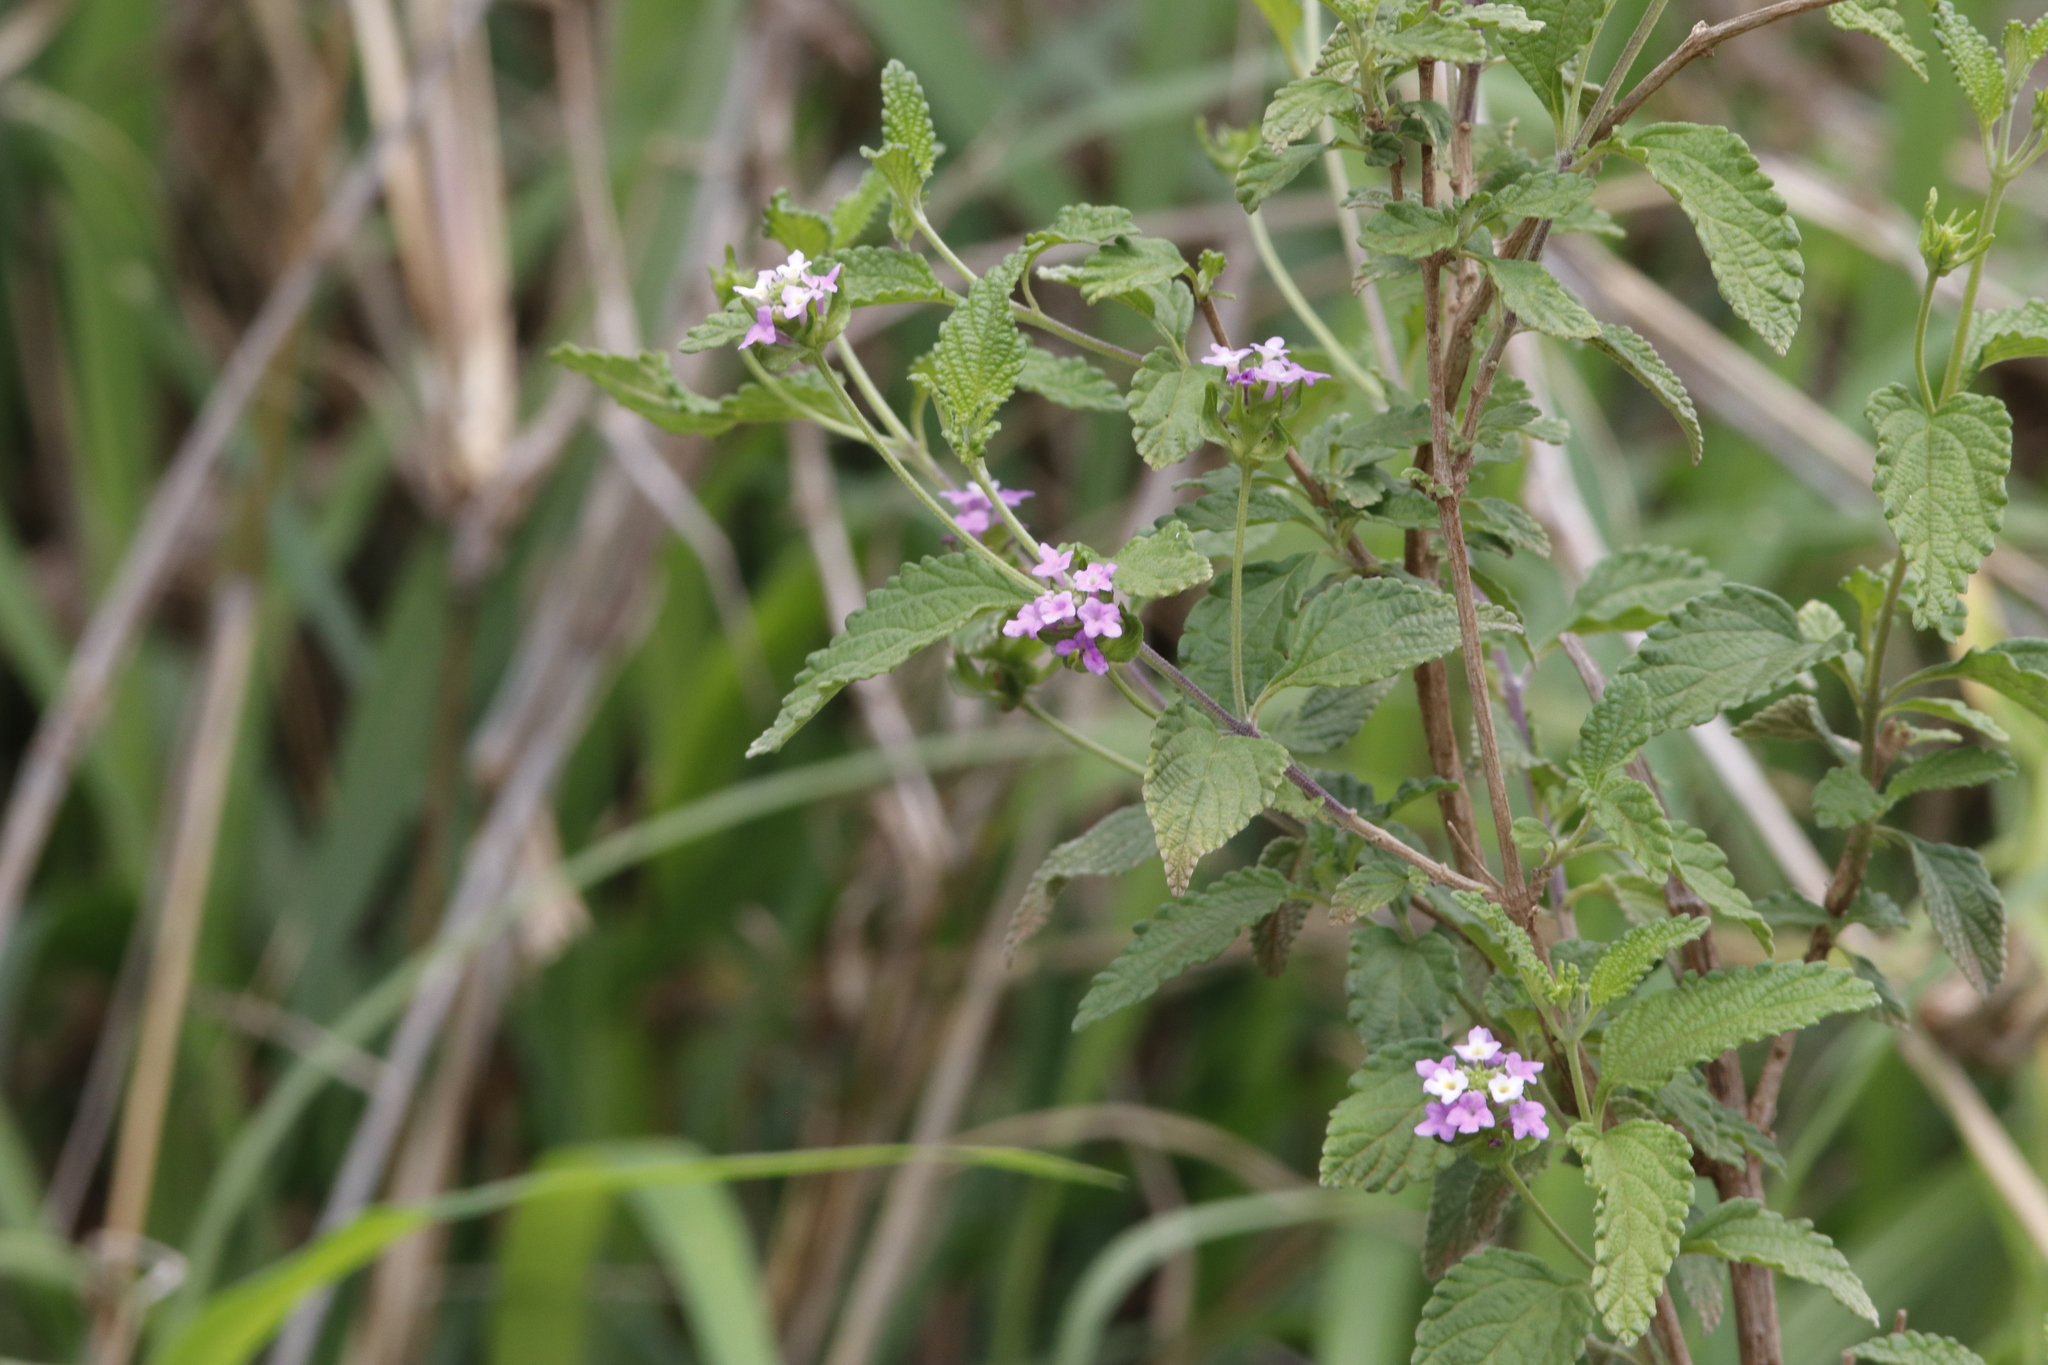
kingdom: Plantae
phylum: Tracheophyta
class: Magnoliopsida
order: Lamiales
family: Verbenaceae
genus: Lantana
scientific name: Lantana rugosa
